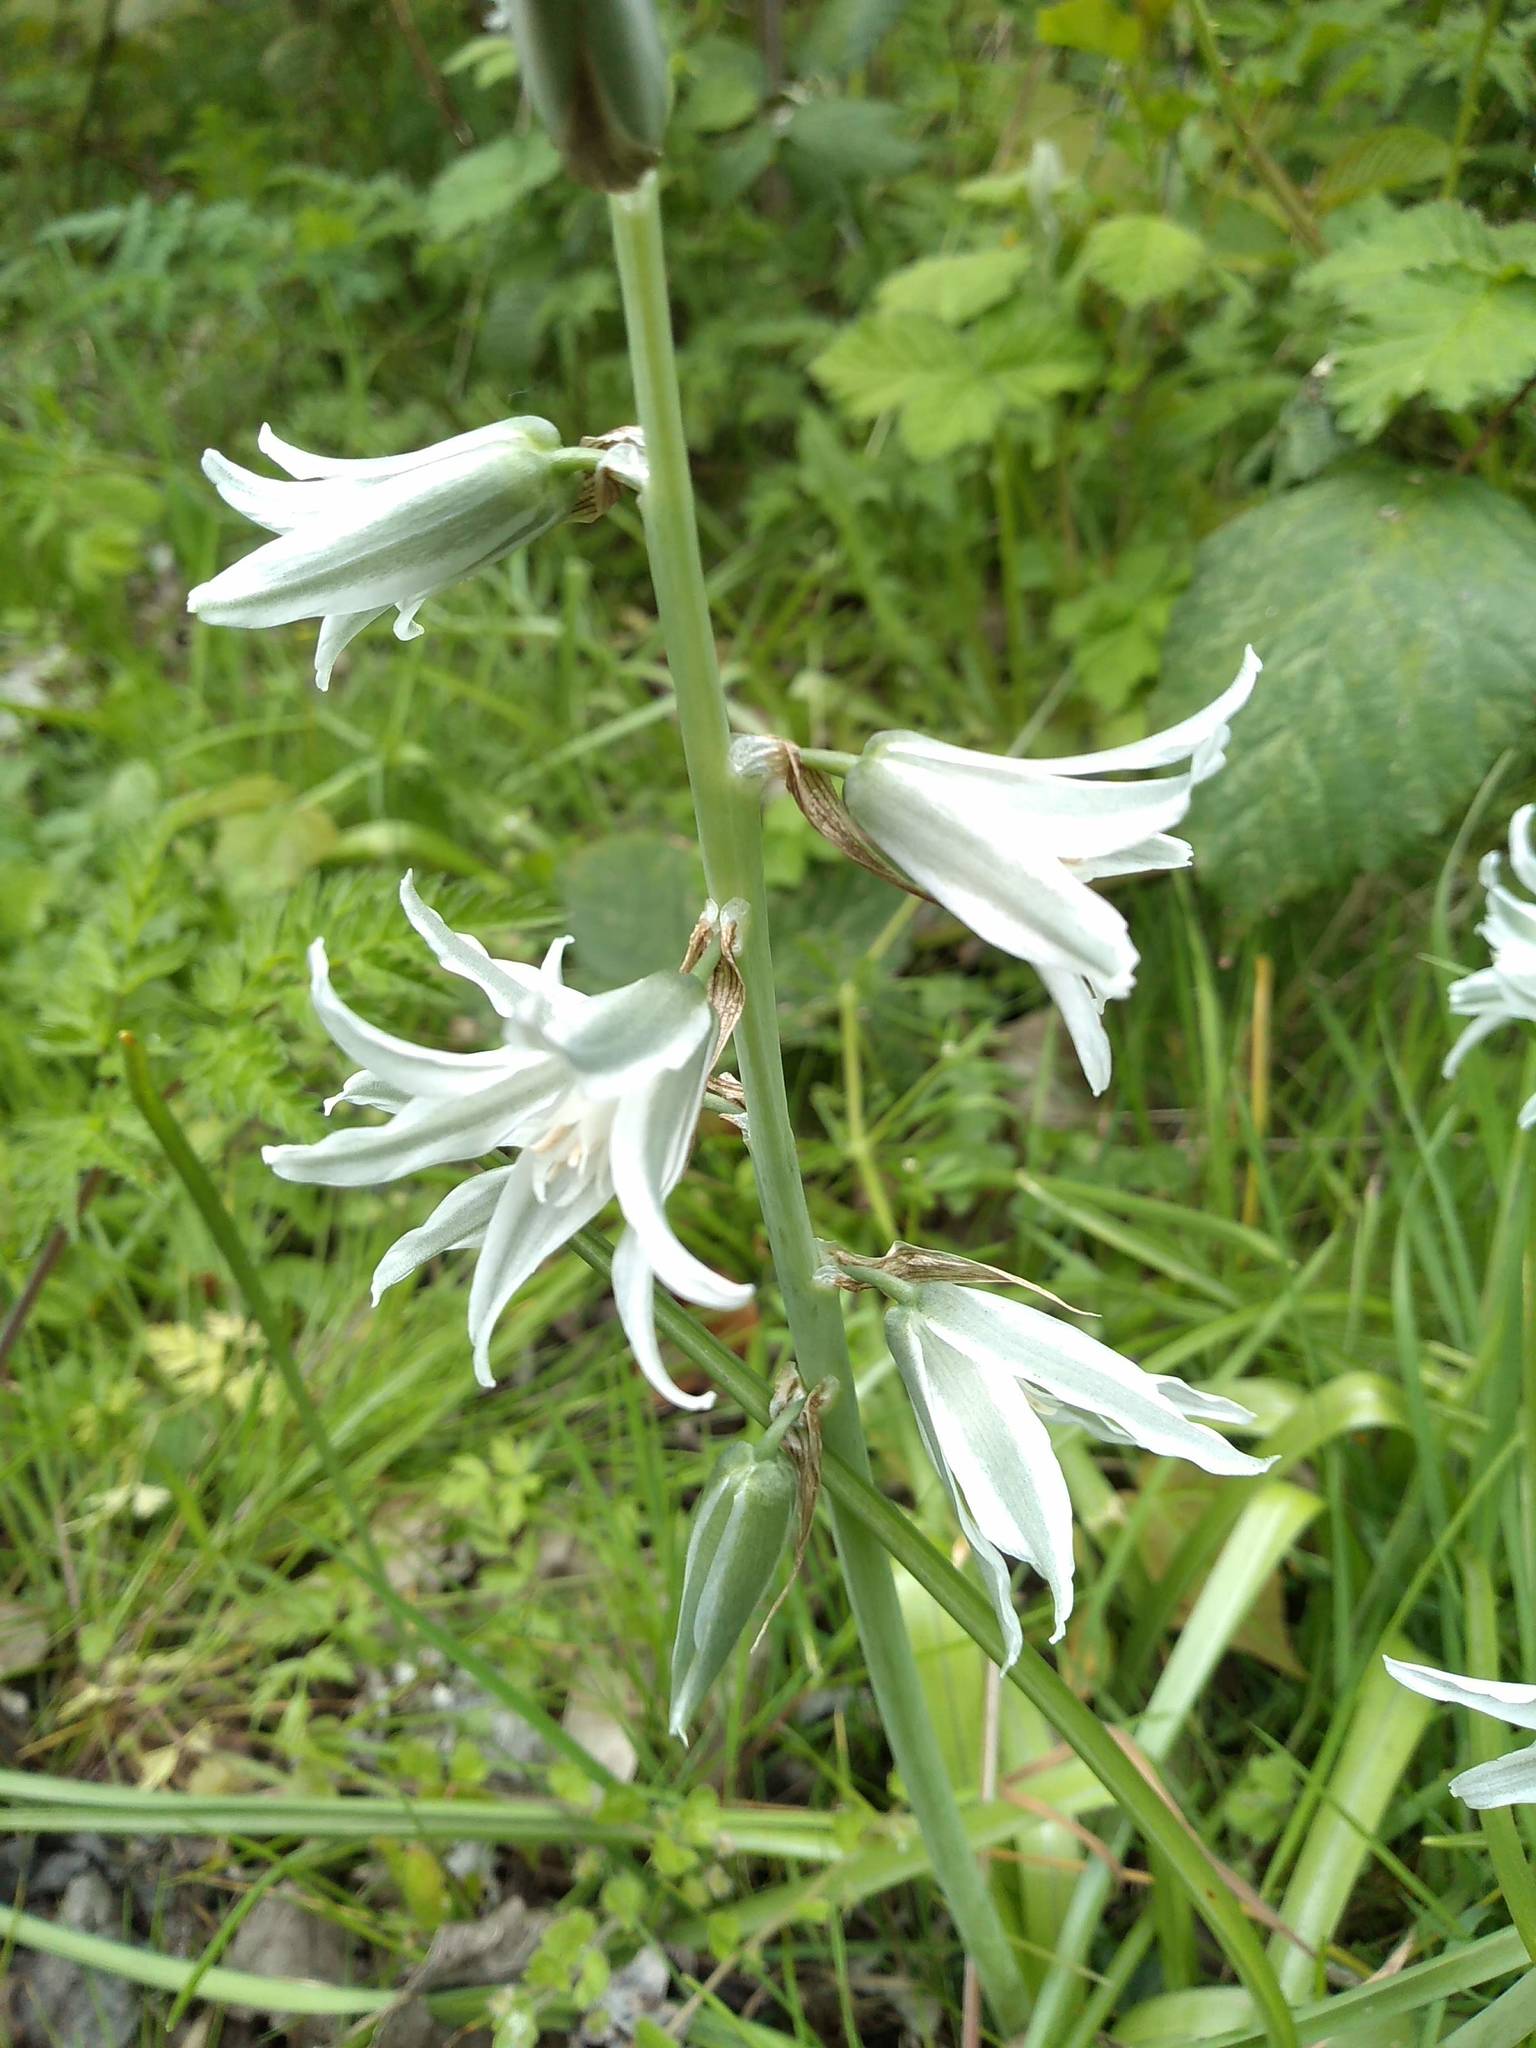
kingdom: Plantae
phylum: Tracheophyta
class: Liliopsida
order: Asparagales
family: Asparagaceae
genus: Ornithogalum
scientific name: Ornithogalum nutans
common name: Drooping star-of-bethlehem
